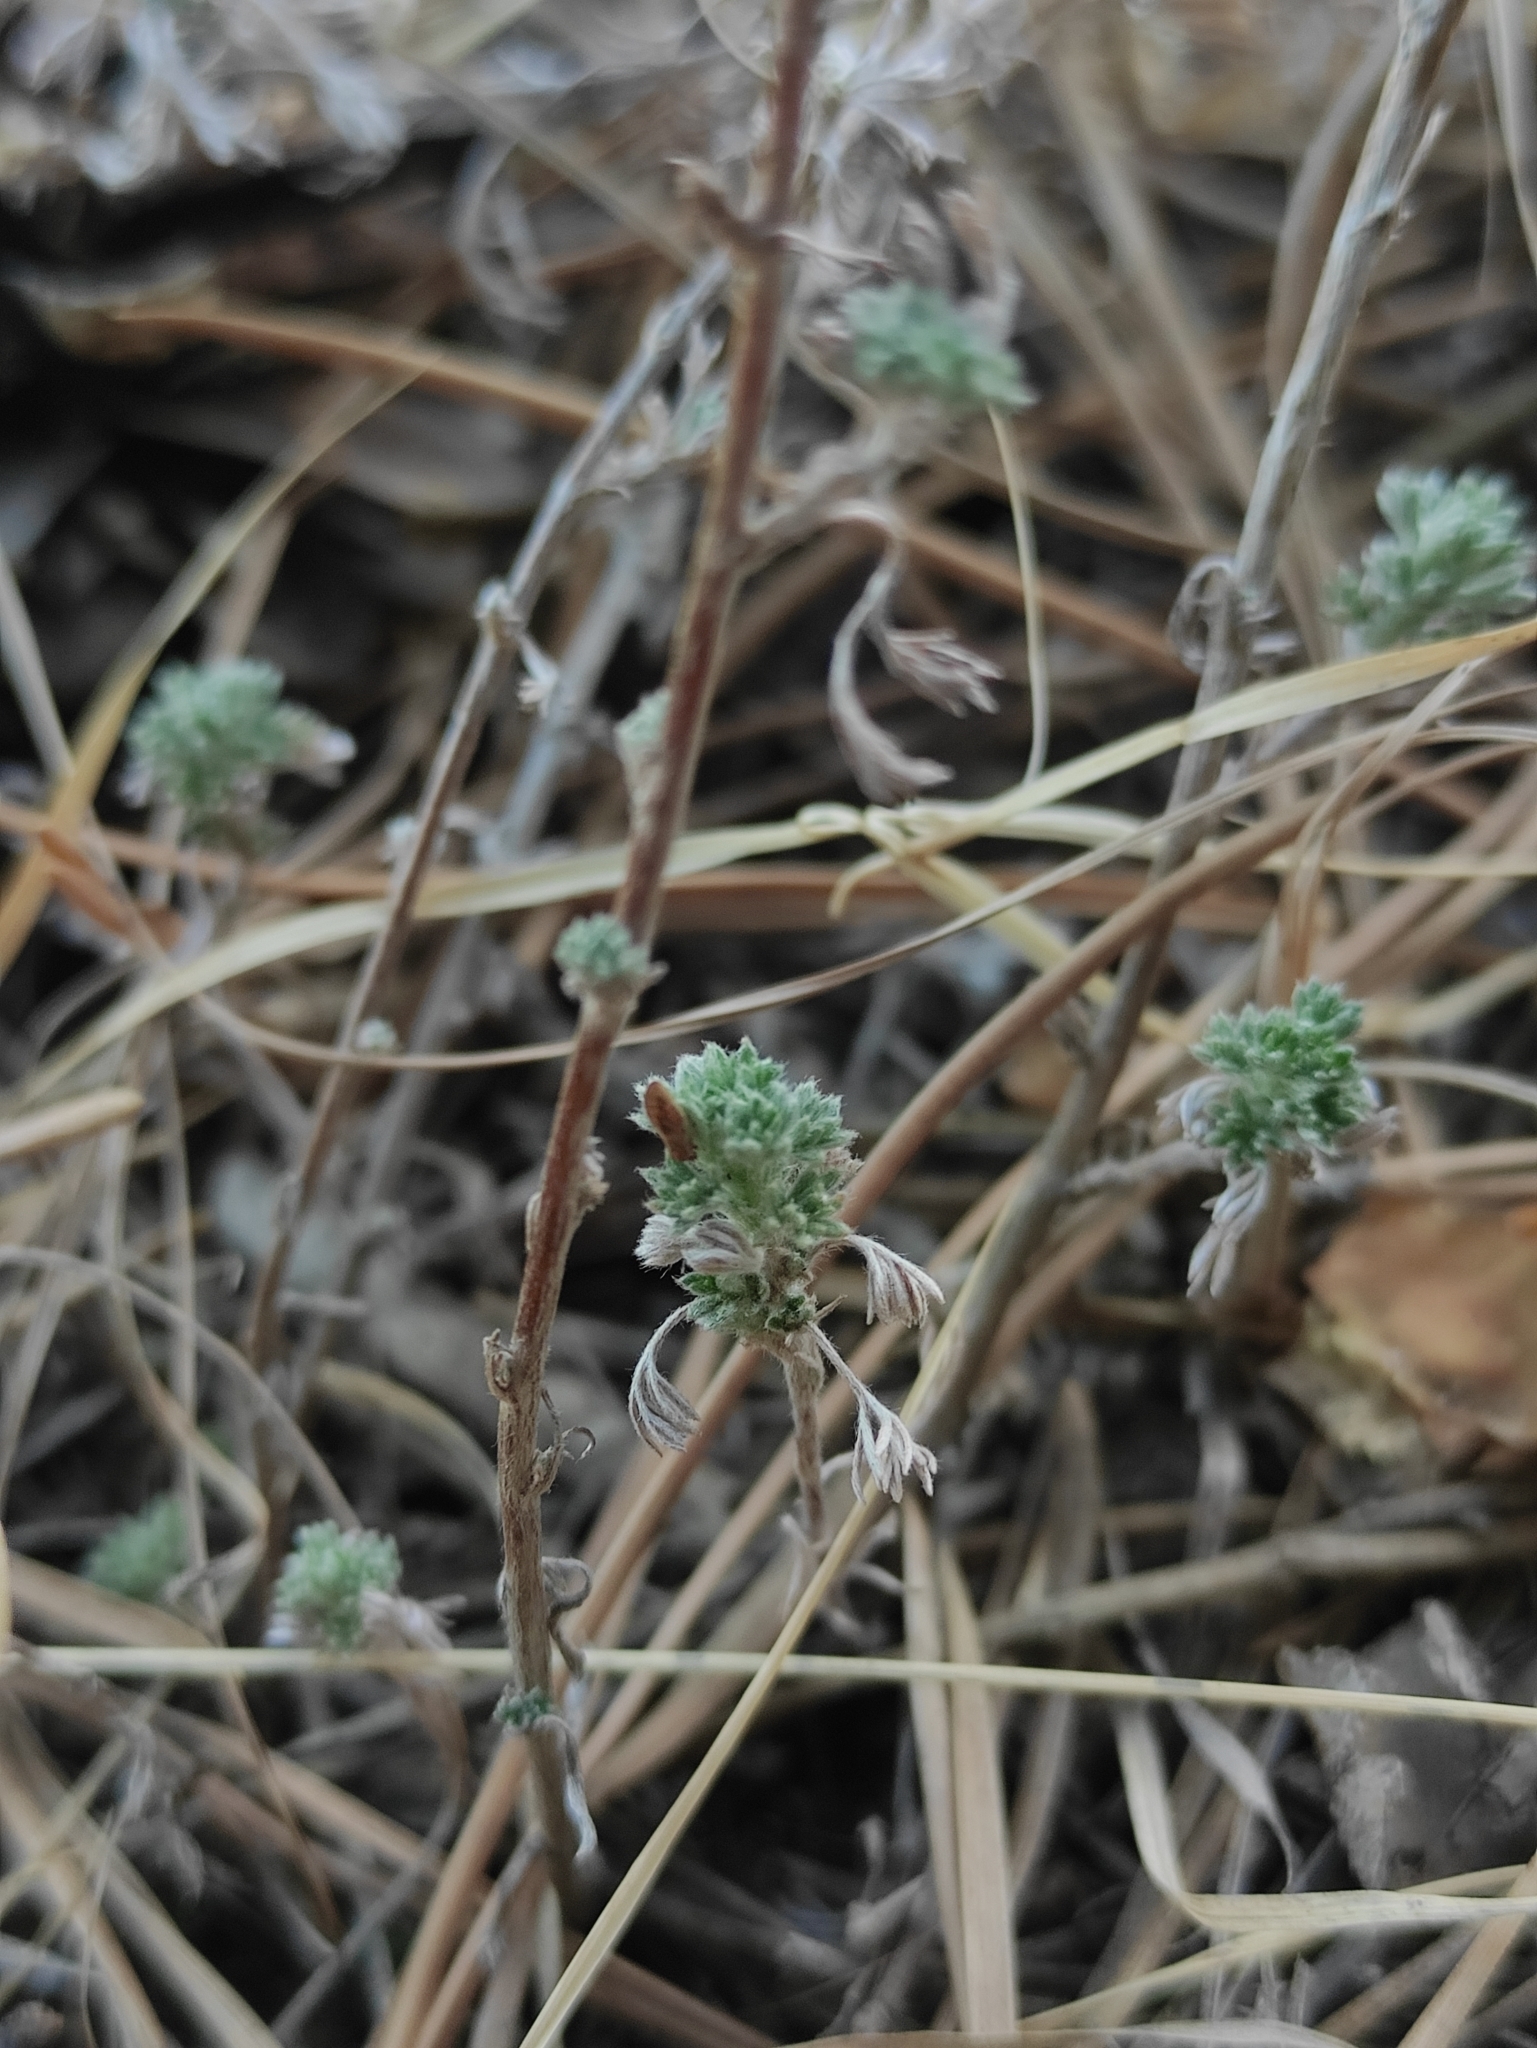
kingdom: Plantae
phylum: Tracheophyta
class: Magnoliopsida
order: Asterales
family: Asteraceae
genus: Artemisia
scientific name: Artemisia frigida
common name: Prairie sagewort
